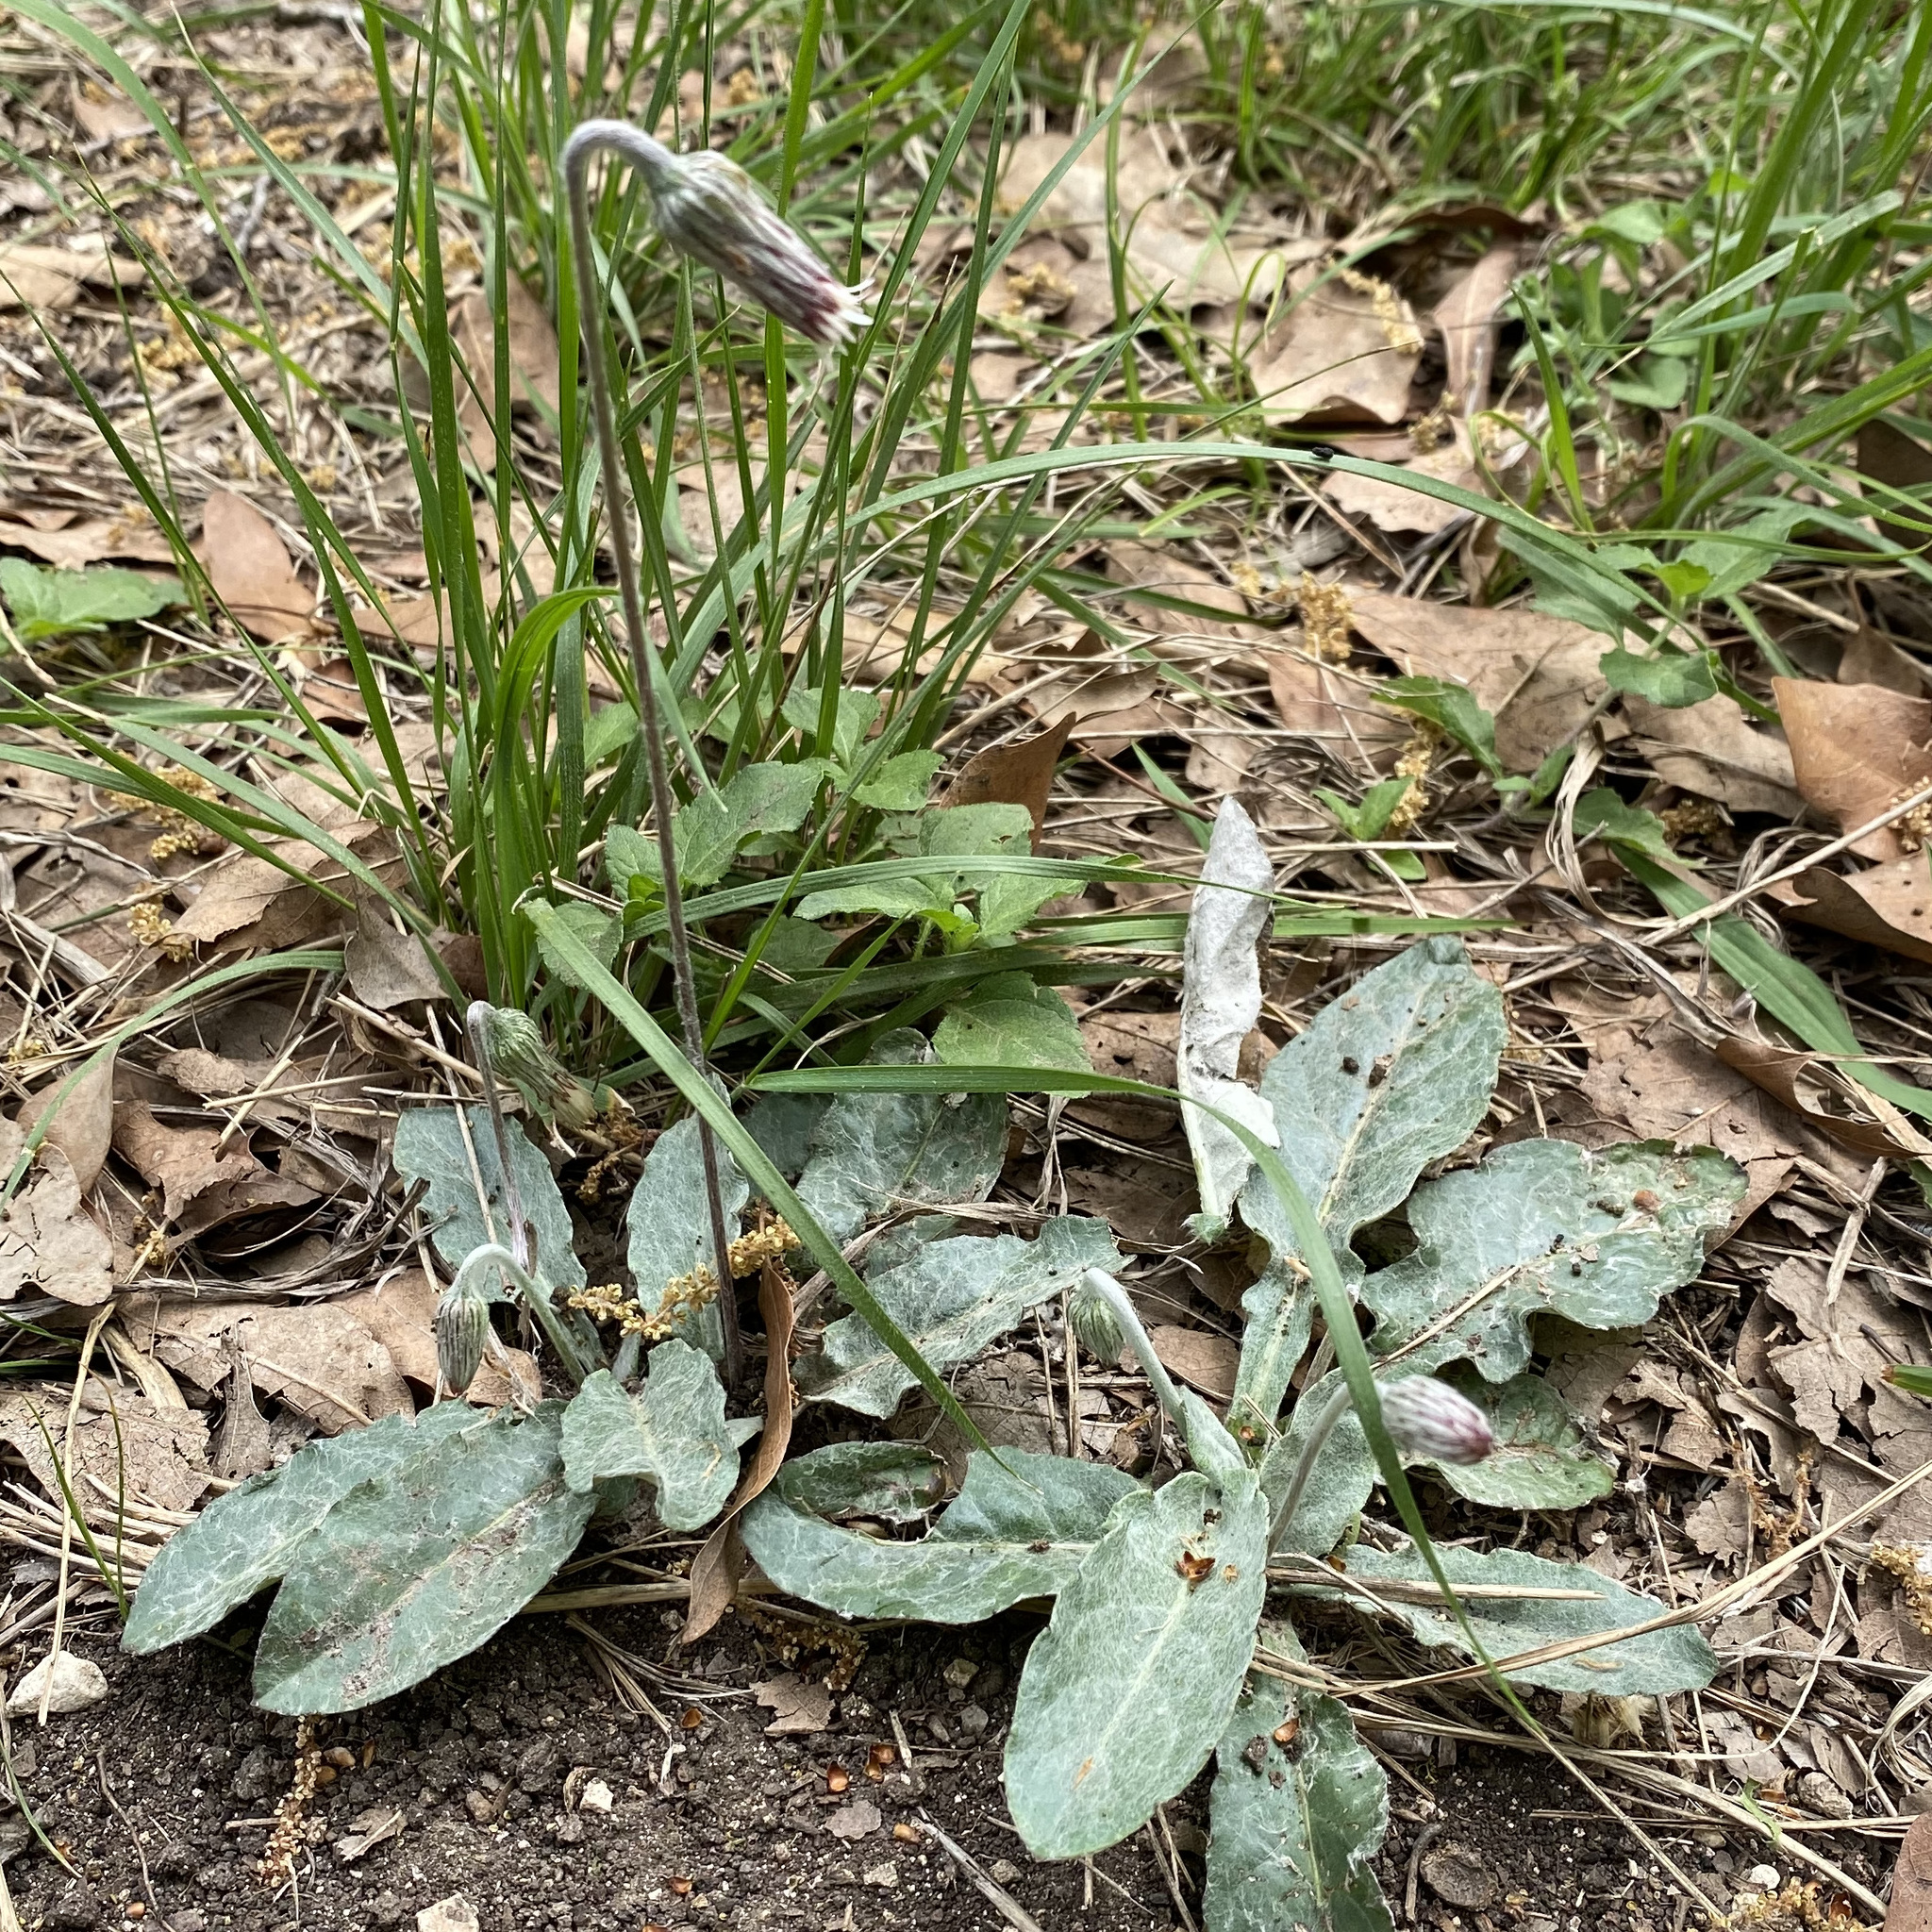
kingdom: Plantae
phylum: Tracheophyta
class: Magnoliopsida
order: Asterales
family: Asteraceae
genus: Chaptalia
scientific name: Chaptalia texana
